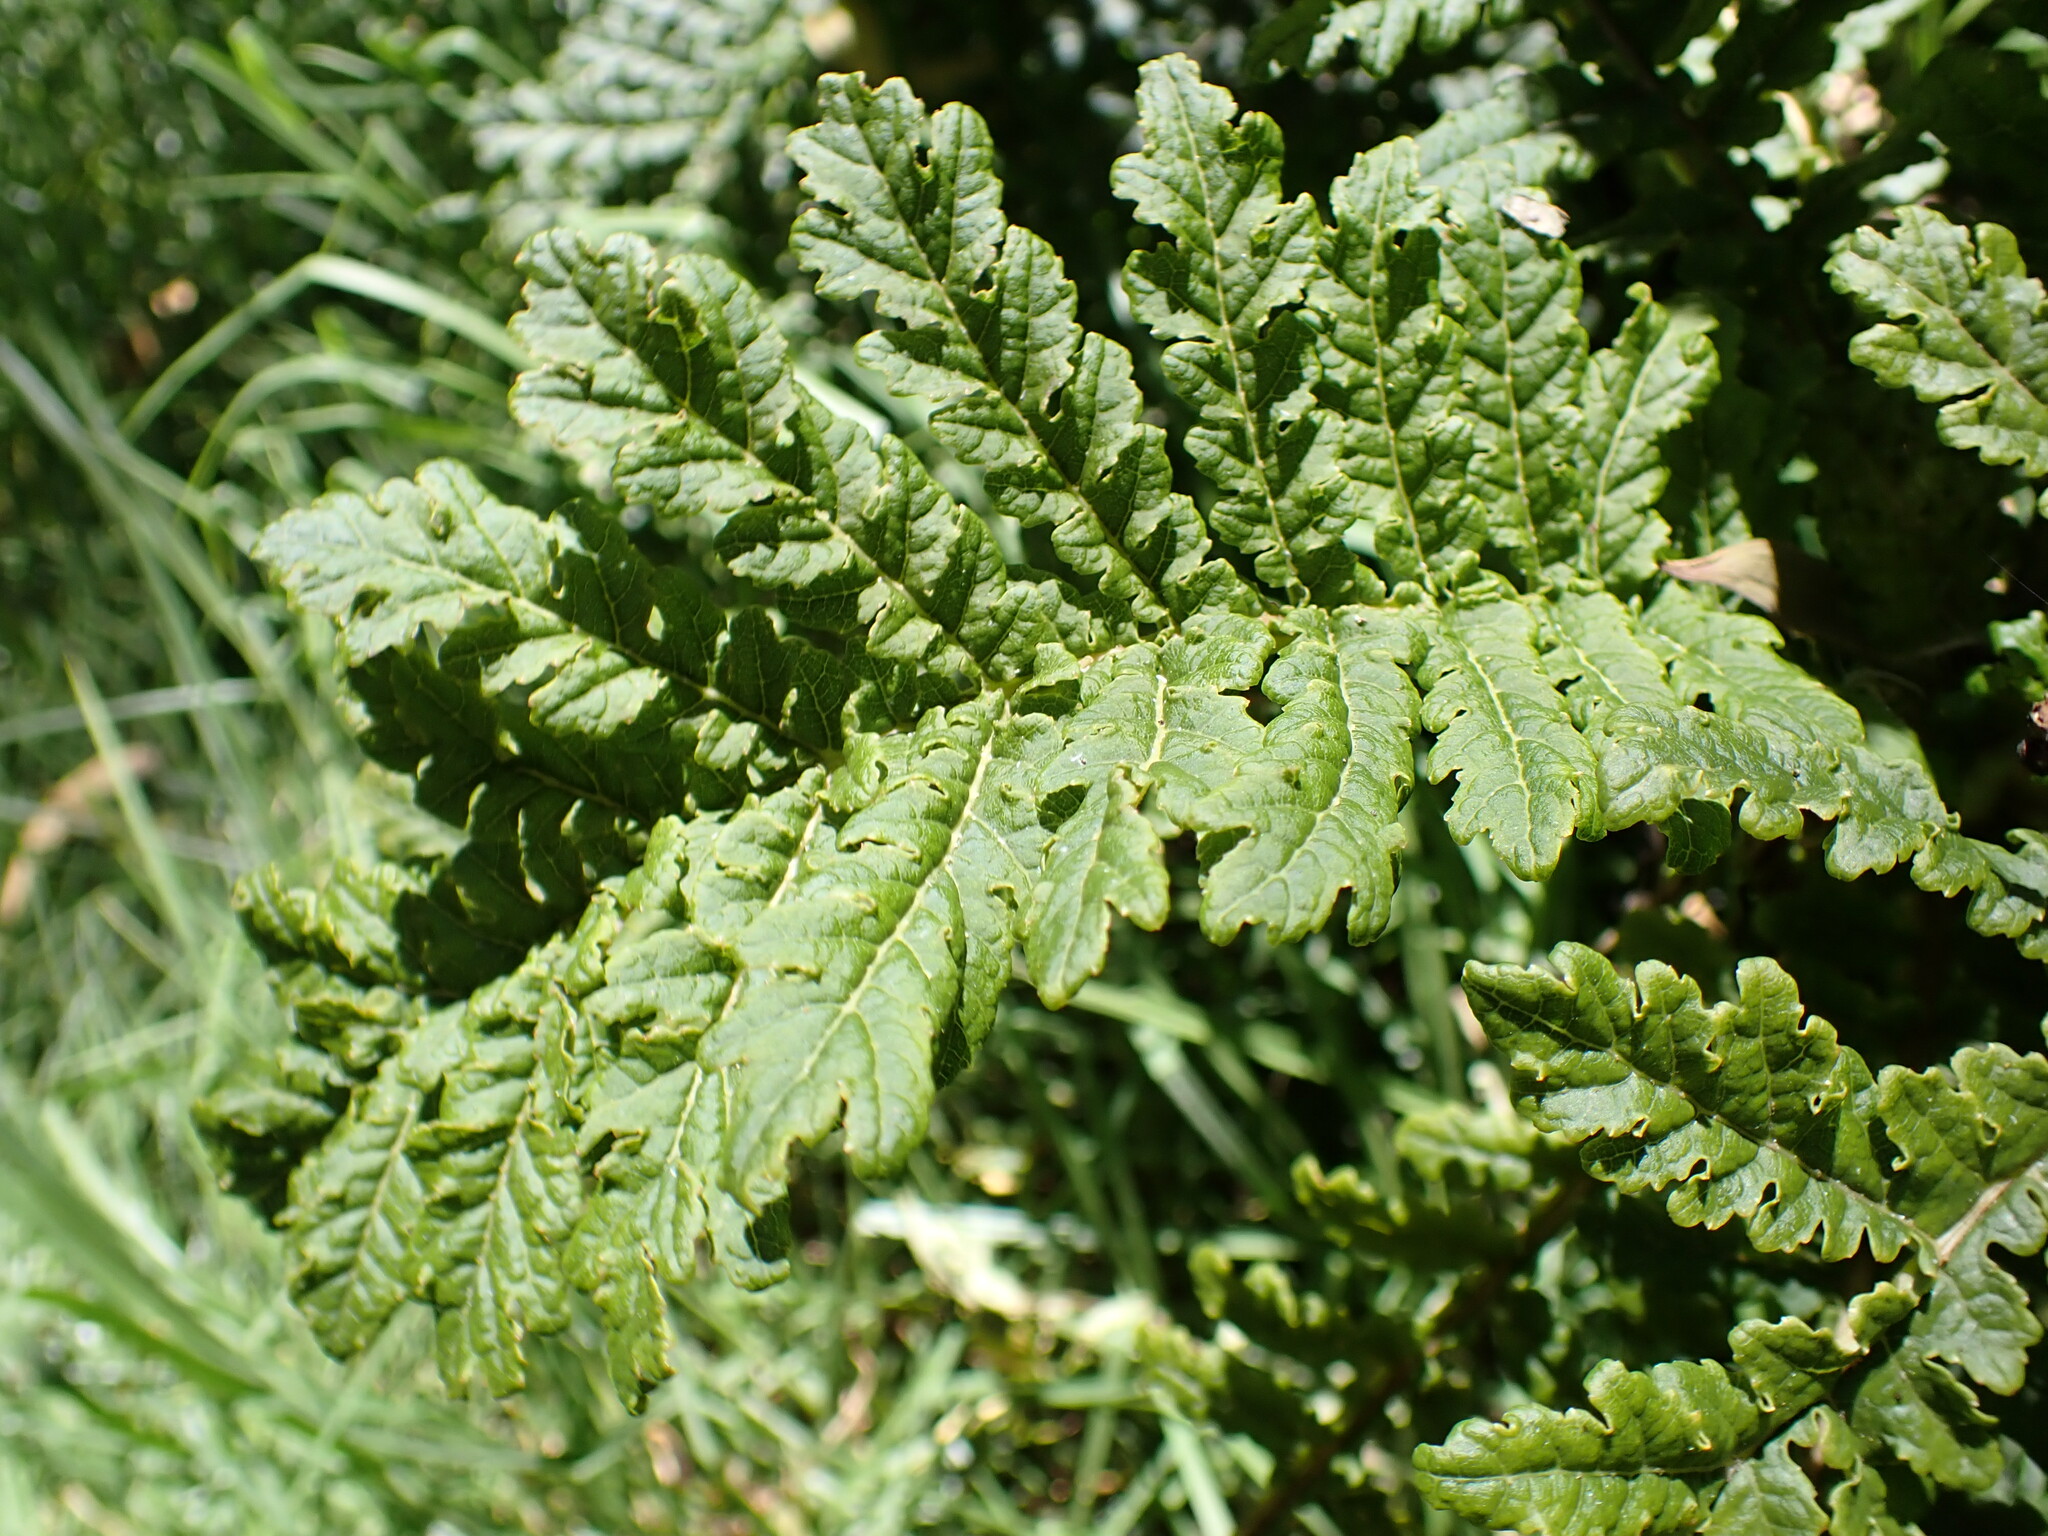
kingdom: Plantae
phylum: Tracheophyta
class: Magnoliopsida
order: Asterales
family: Campanulaceae
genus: Cyanea
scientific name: Cyanea shipmanii
